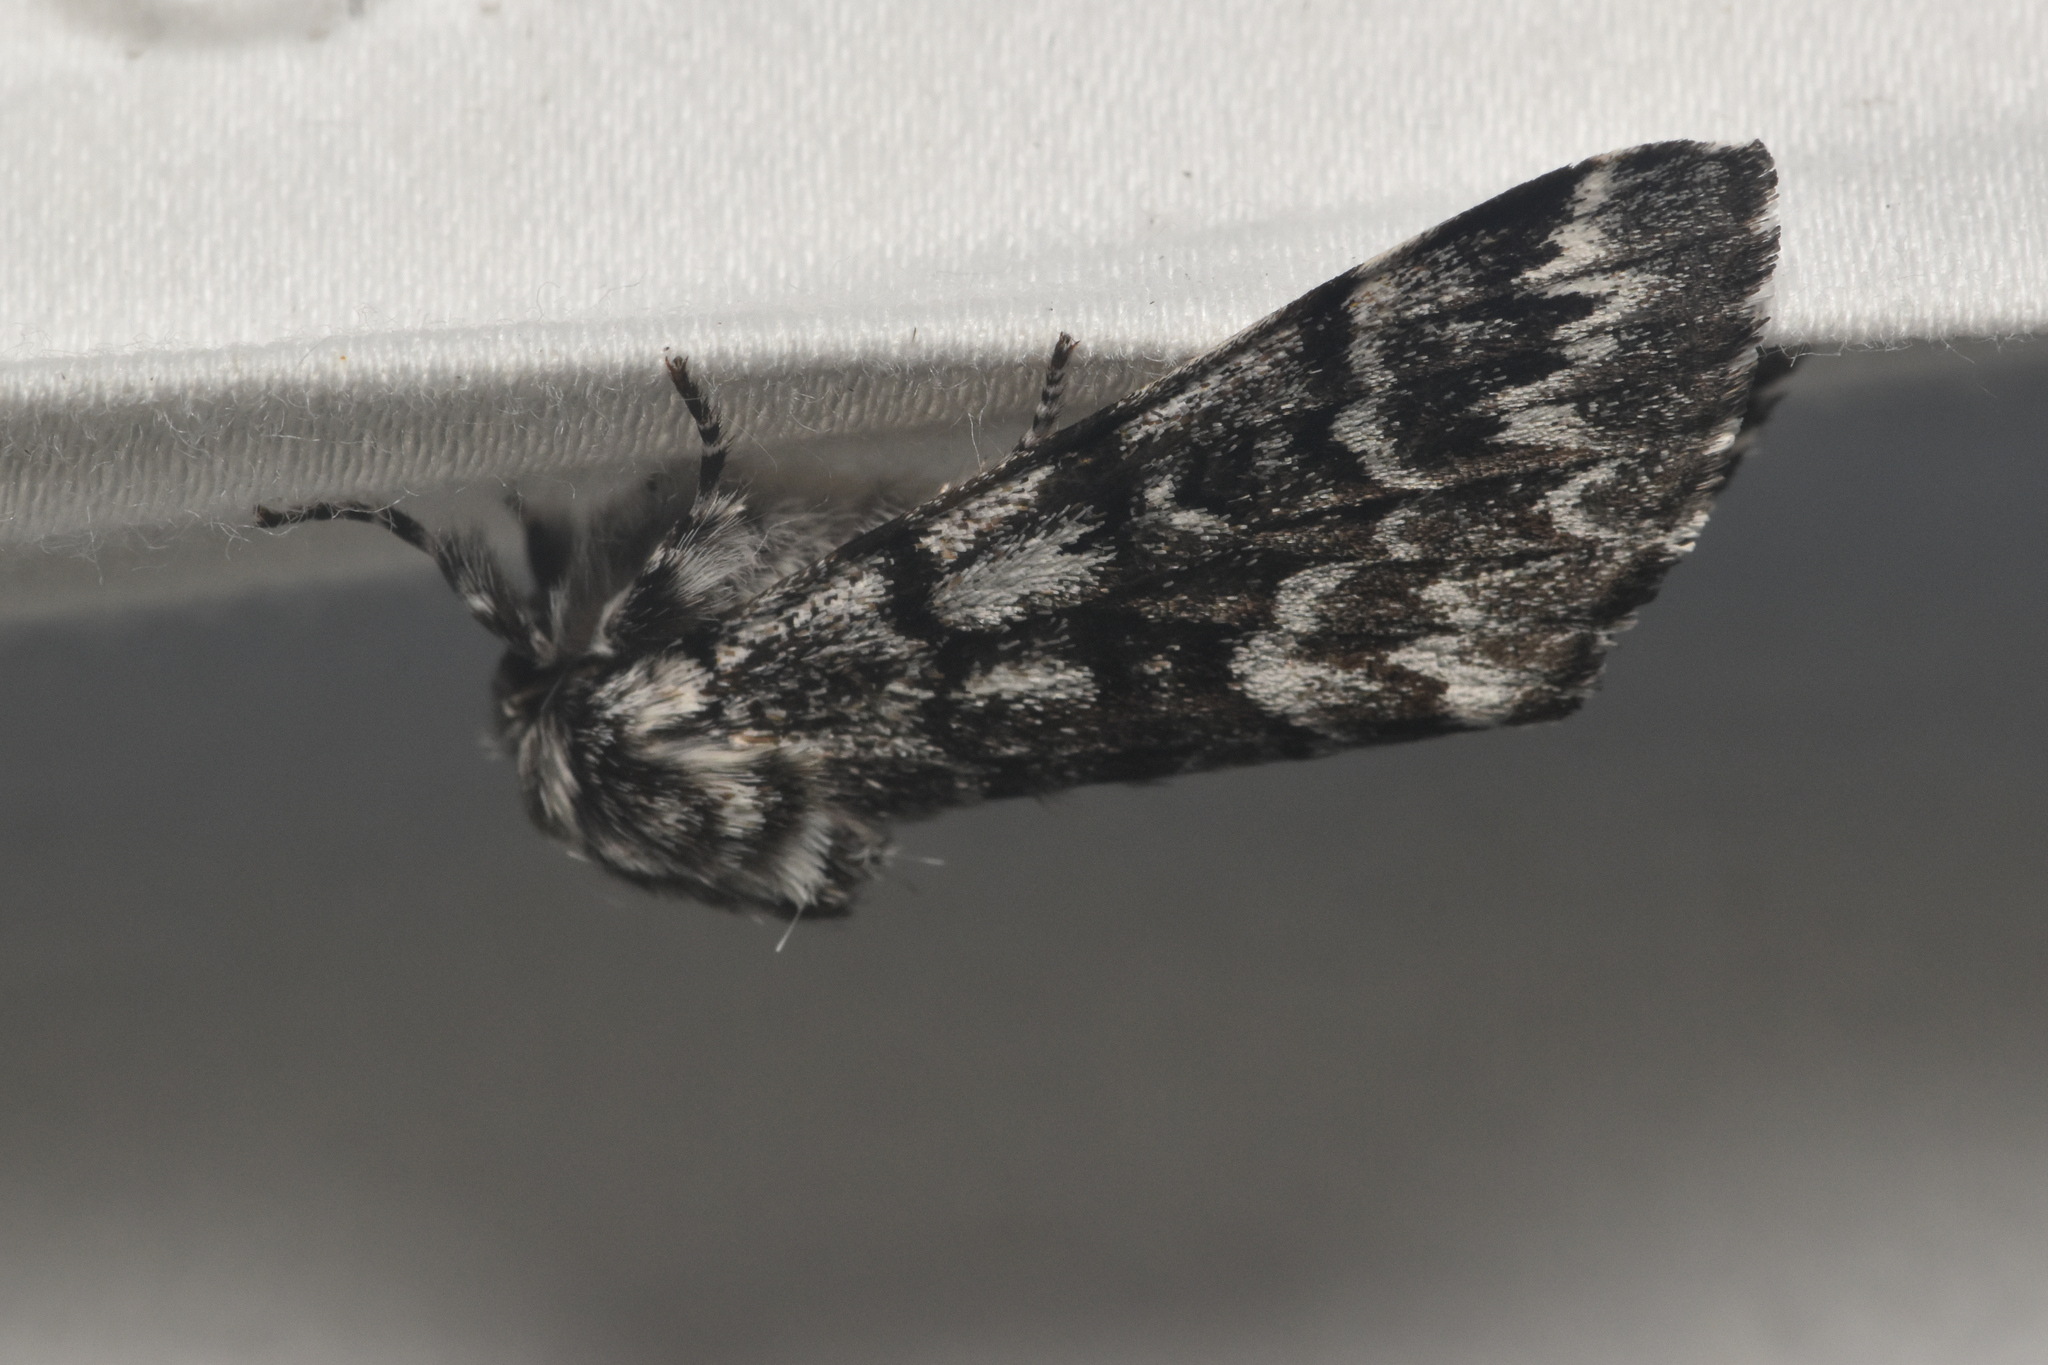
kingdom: Animalia
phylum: Arthropoda
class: Insecta
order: Lepidoptera
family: Noctuidae
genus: Panthea
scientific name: Panthea virginarius
